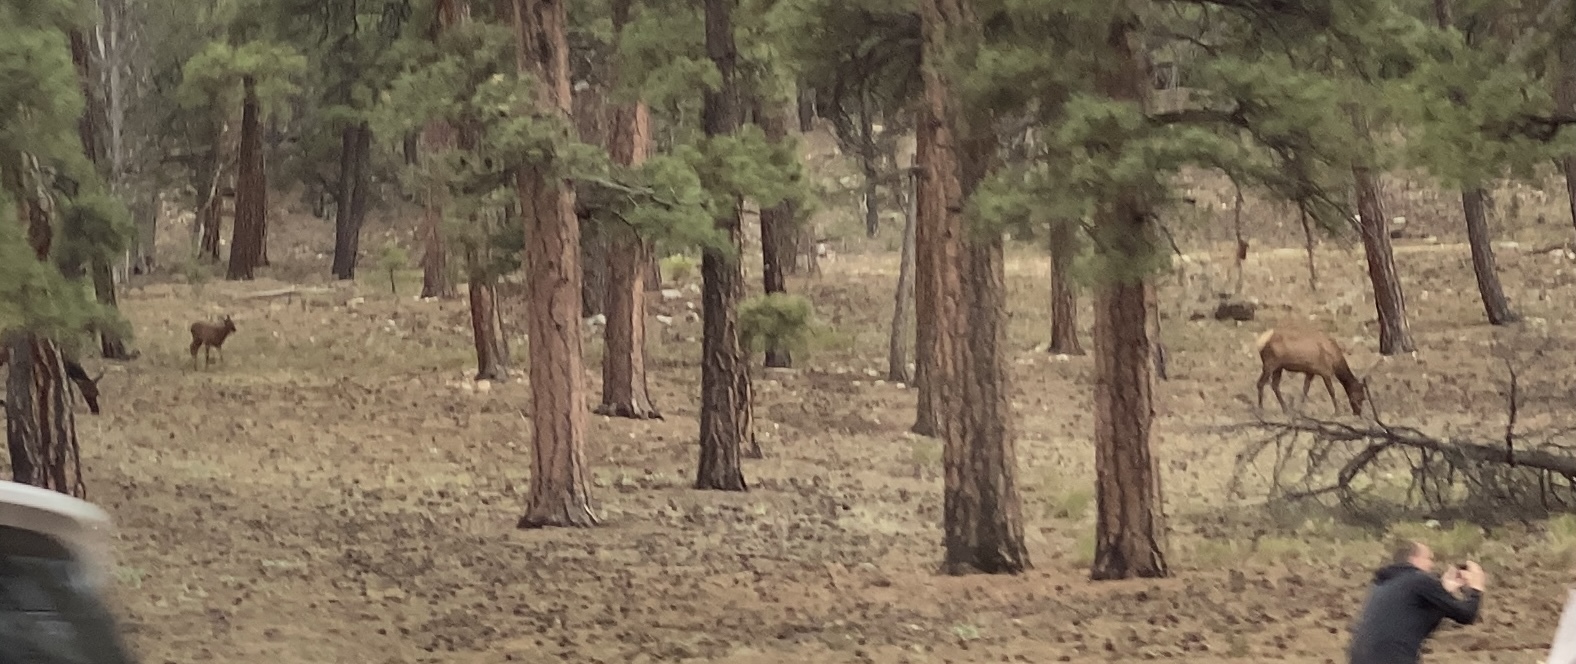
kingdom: Animalia
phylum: Chordata
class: Mammalia
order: Artiodactyla
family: Cervidae
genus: Cervus
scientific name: Cervus elaphus
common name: Red deer
